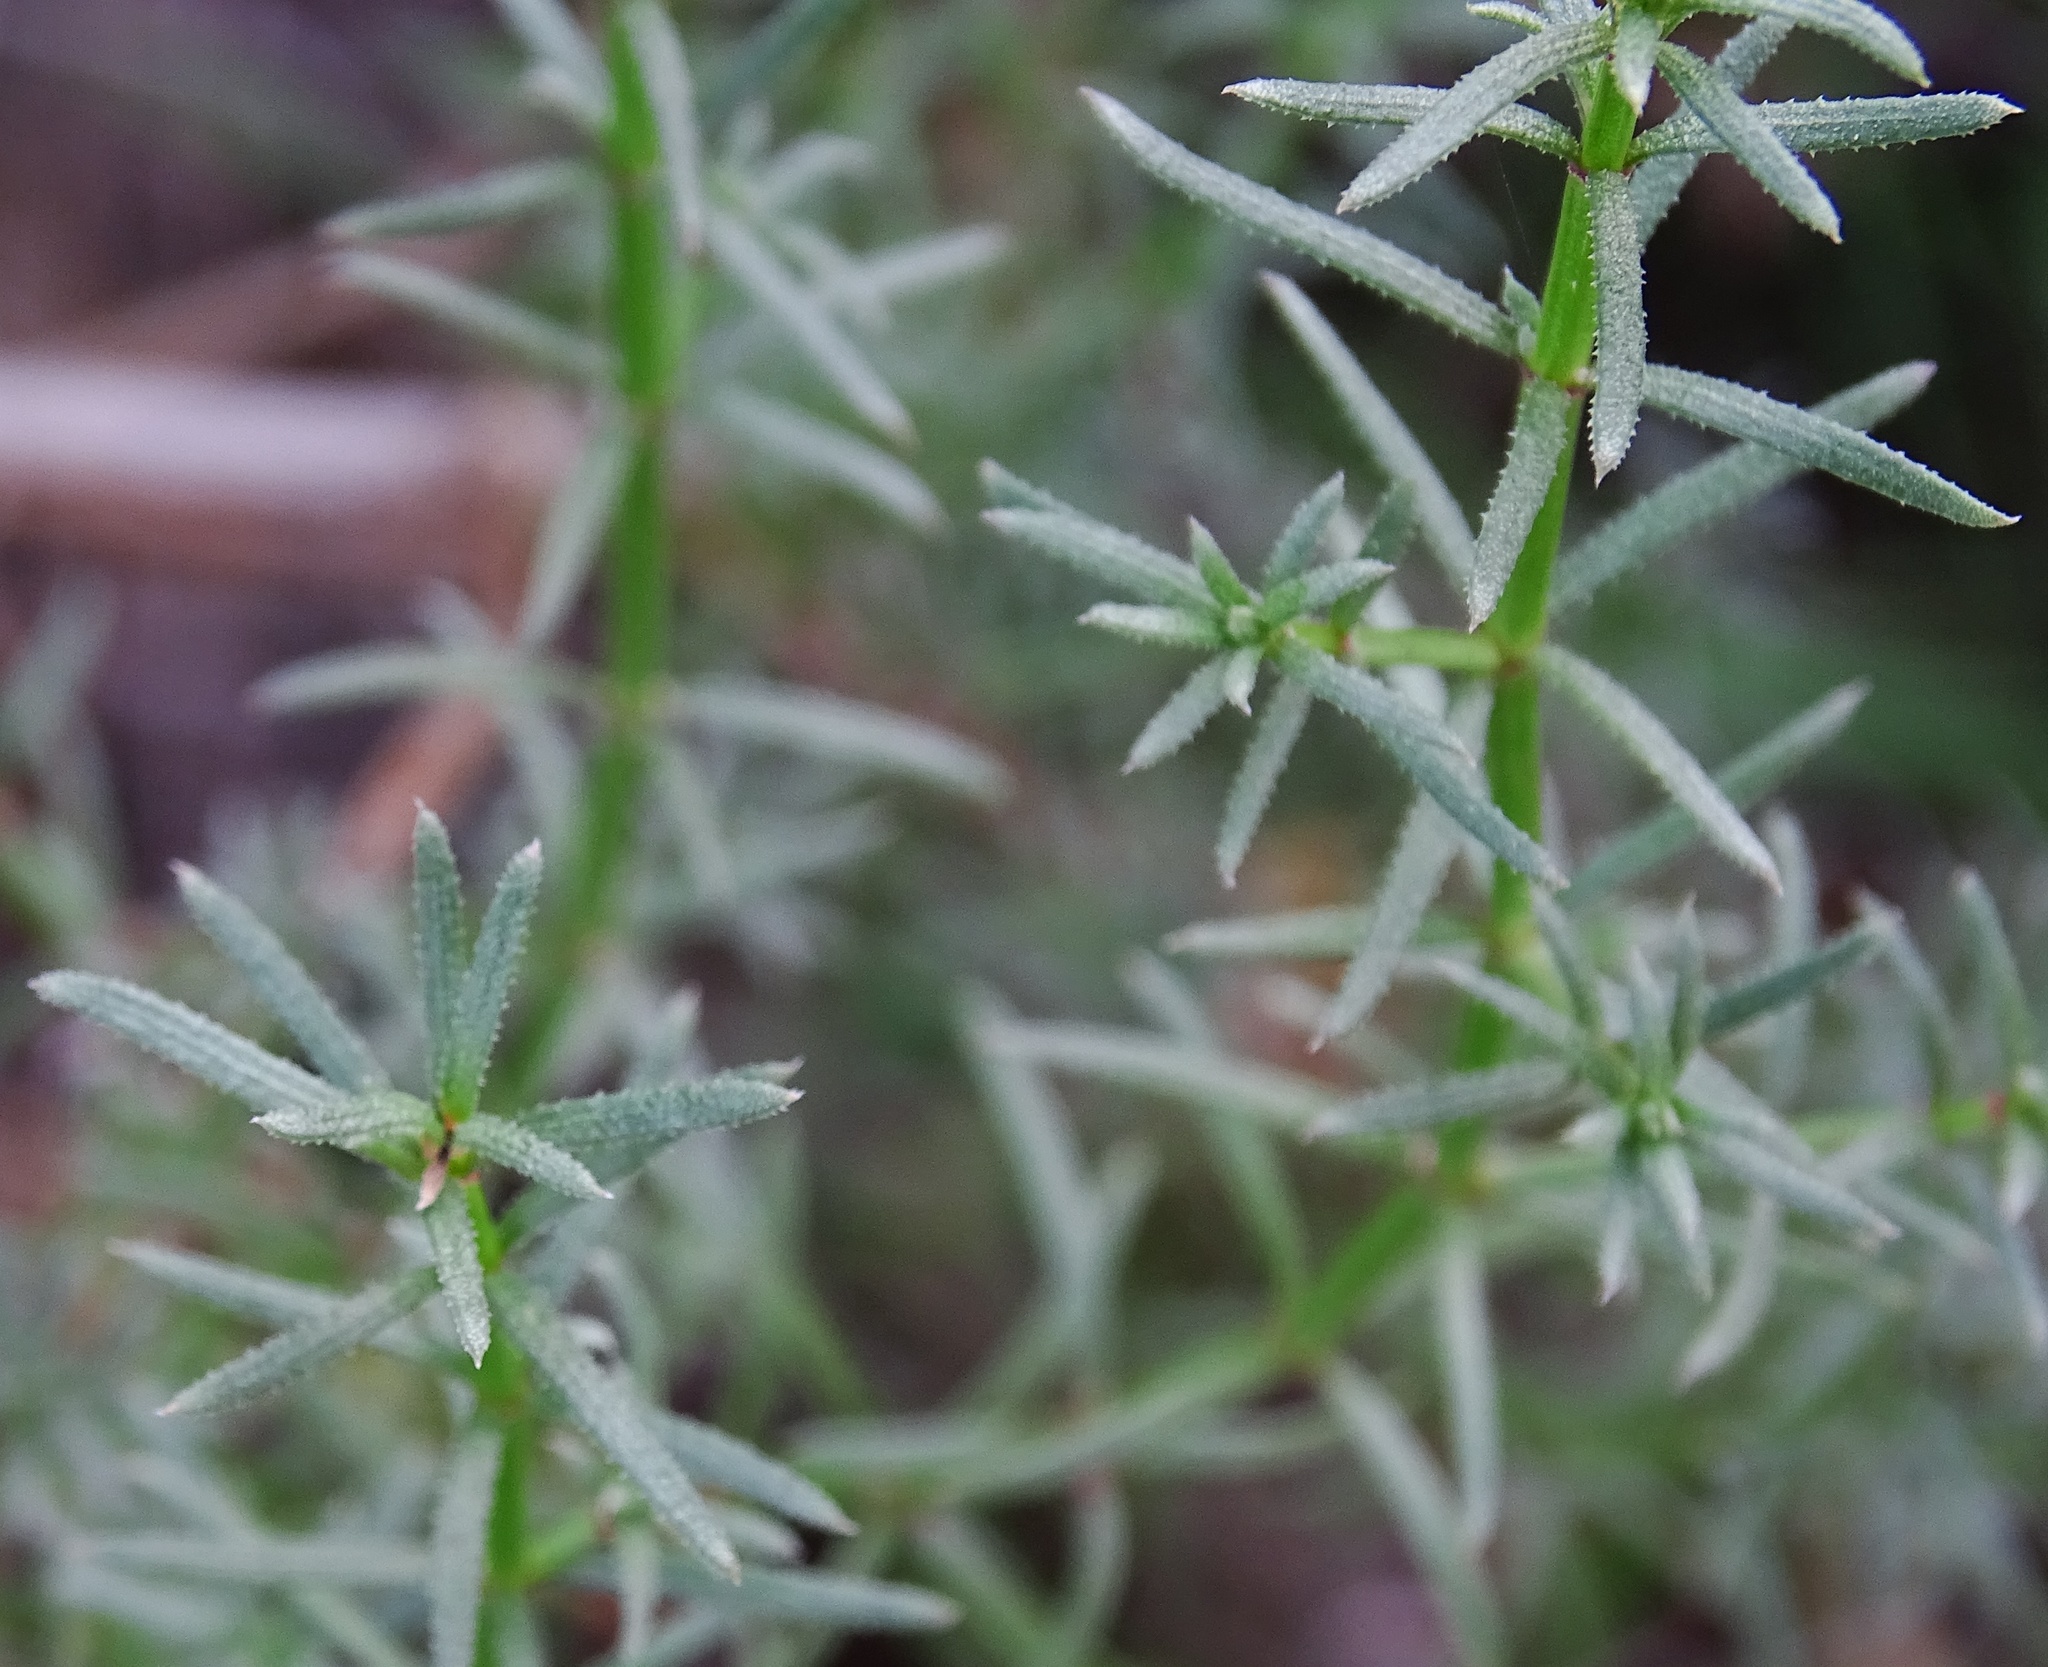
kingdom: Plantae
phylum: Tracheophyta
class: Magnoliopsida
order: Gentianales
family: Rubiaceae
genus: Galium
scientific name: Galium angustifolium
